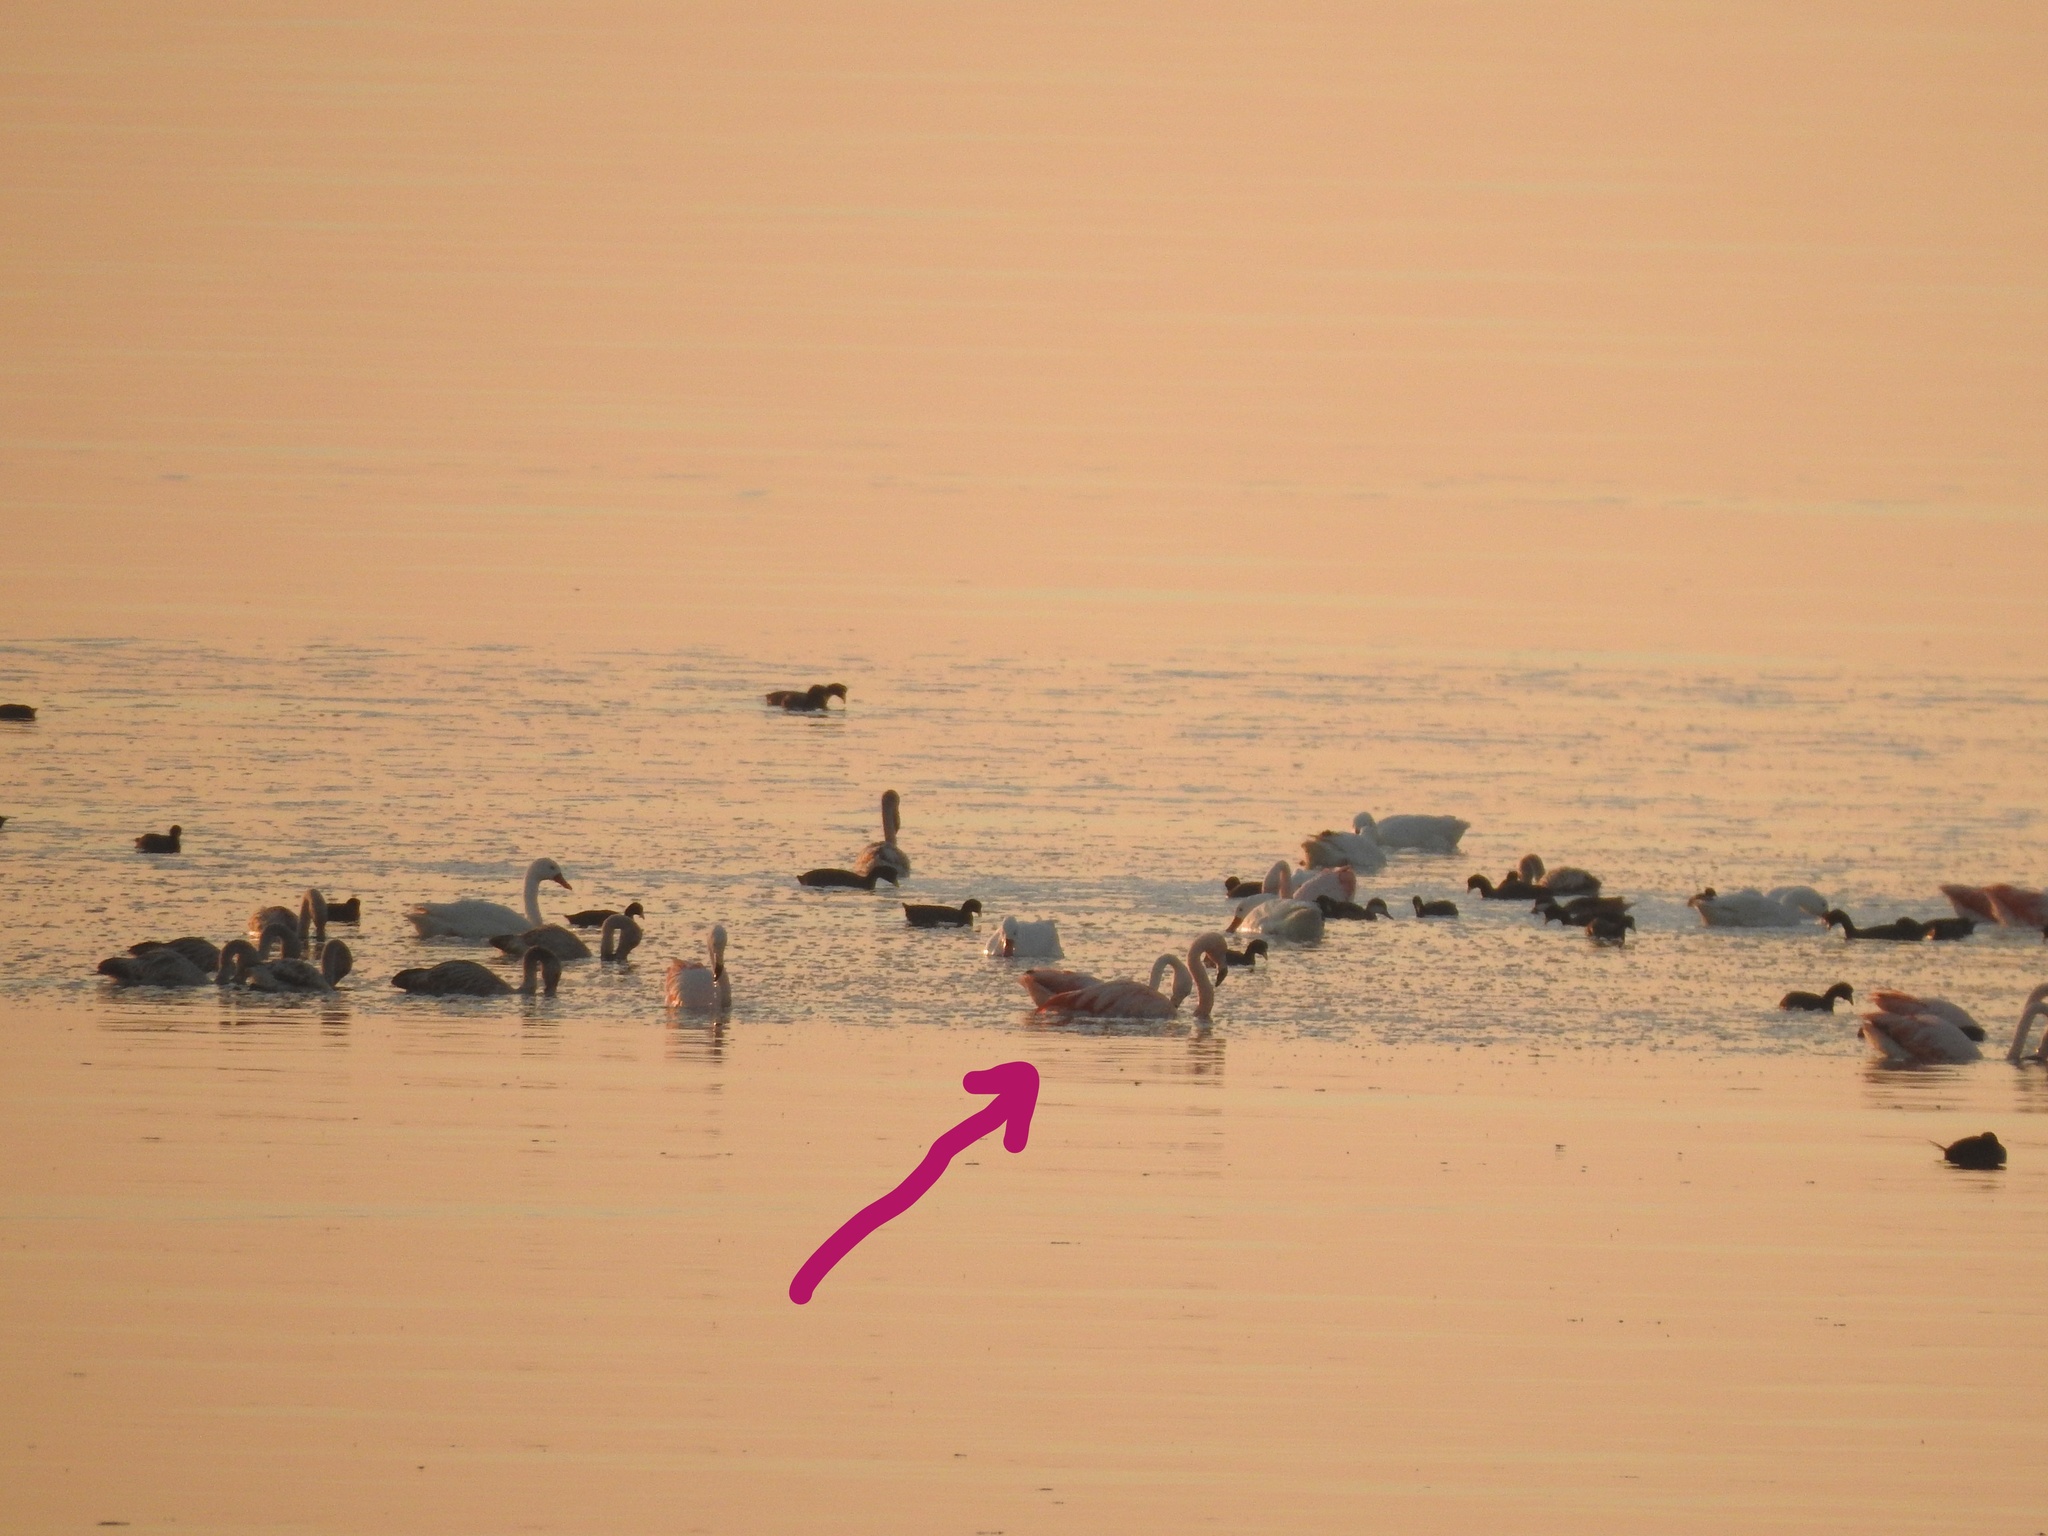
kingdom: Animalia
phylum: Chordata
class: Aves
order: Phoenicopteriformes
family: Phoenicopteridae
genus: Phoenicopterus
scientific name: Phoenicopterus chilensis
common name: Chilean flamingo
